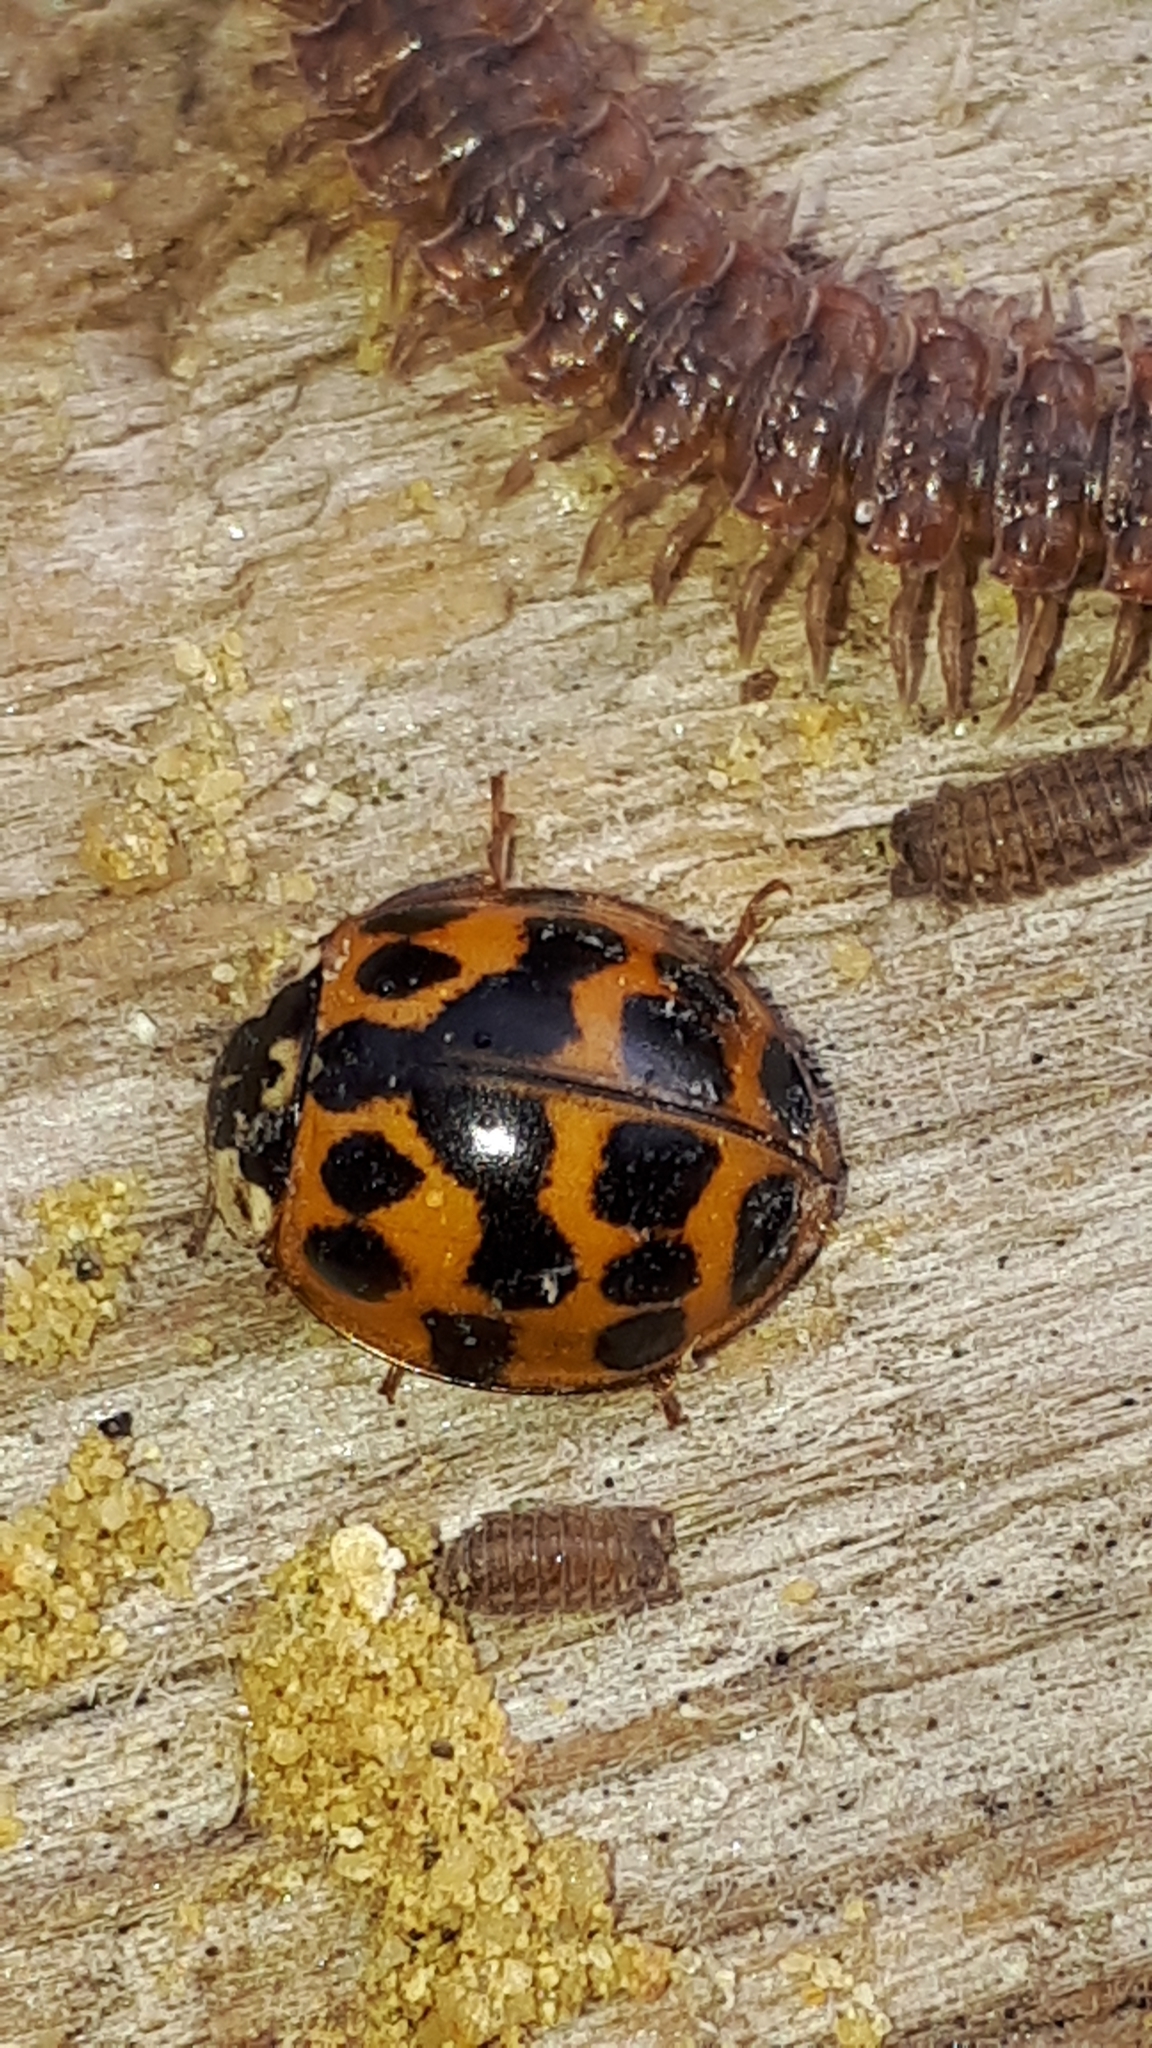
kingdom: Animalia
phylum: Arthropoda
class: Insecta
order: Coleoptera
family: Coccinellidae
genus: Harmonia
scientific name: Harmonia axyridis
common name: Harlequin ladybird
